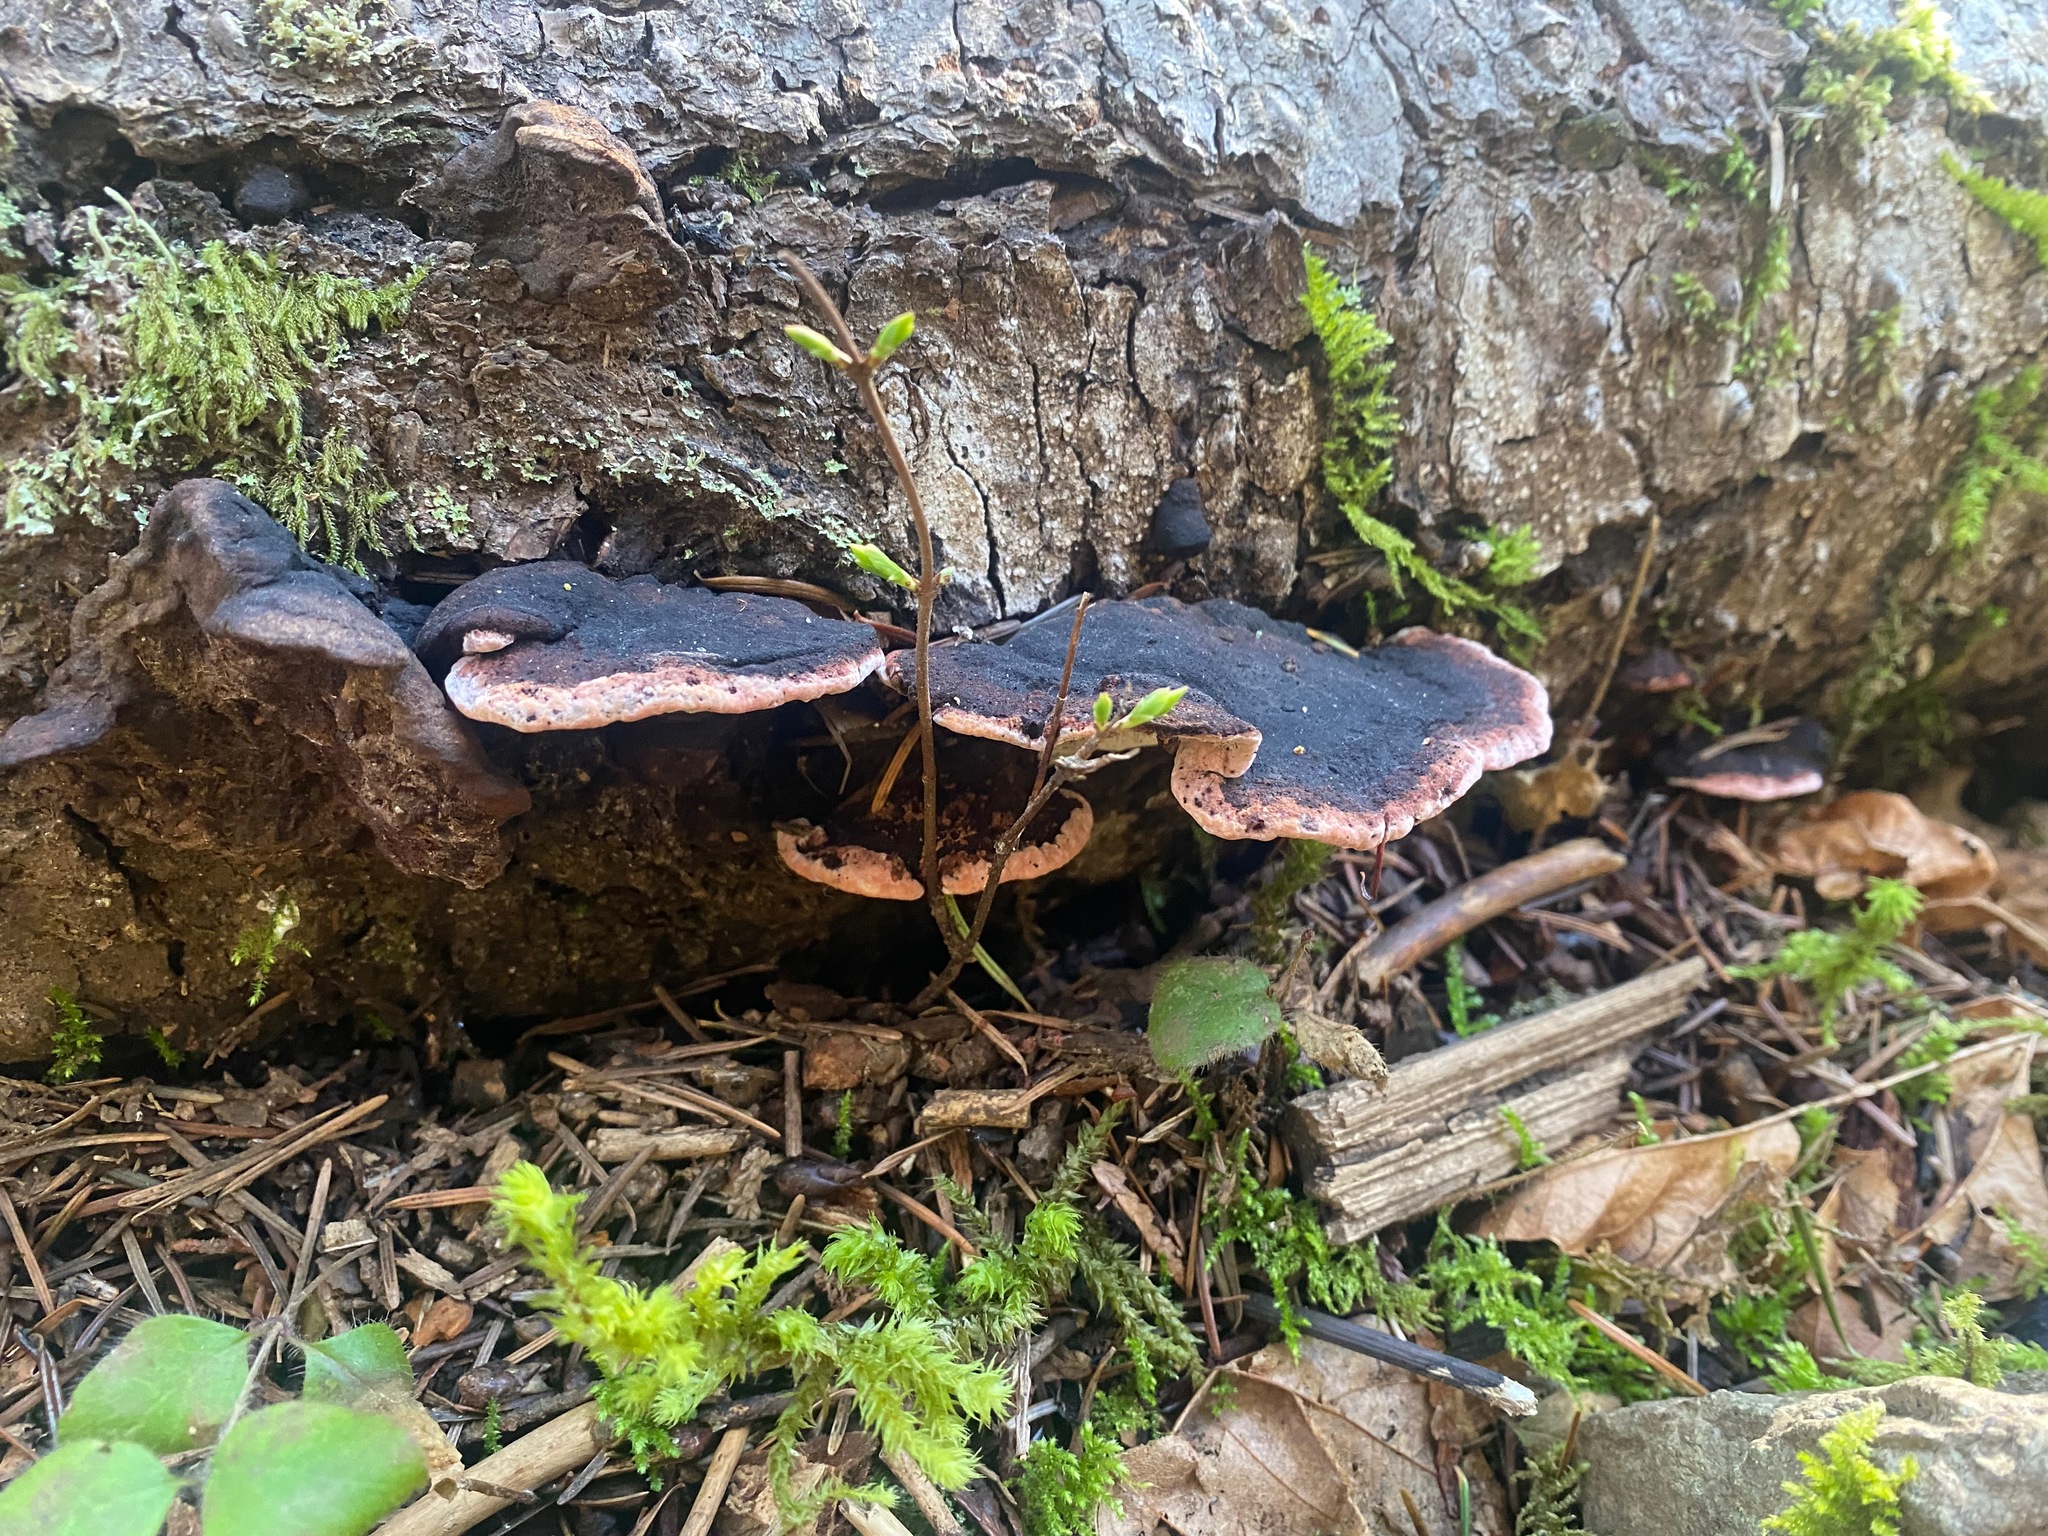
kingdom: Fungi
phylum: Basidiomycota
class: Agaricomycetes
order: Polyporales
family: Fomitopsidaceae
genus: Rhodofomes
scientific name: Rhodofomes cajanderi
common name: Rosy conk
